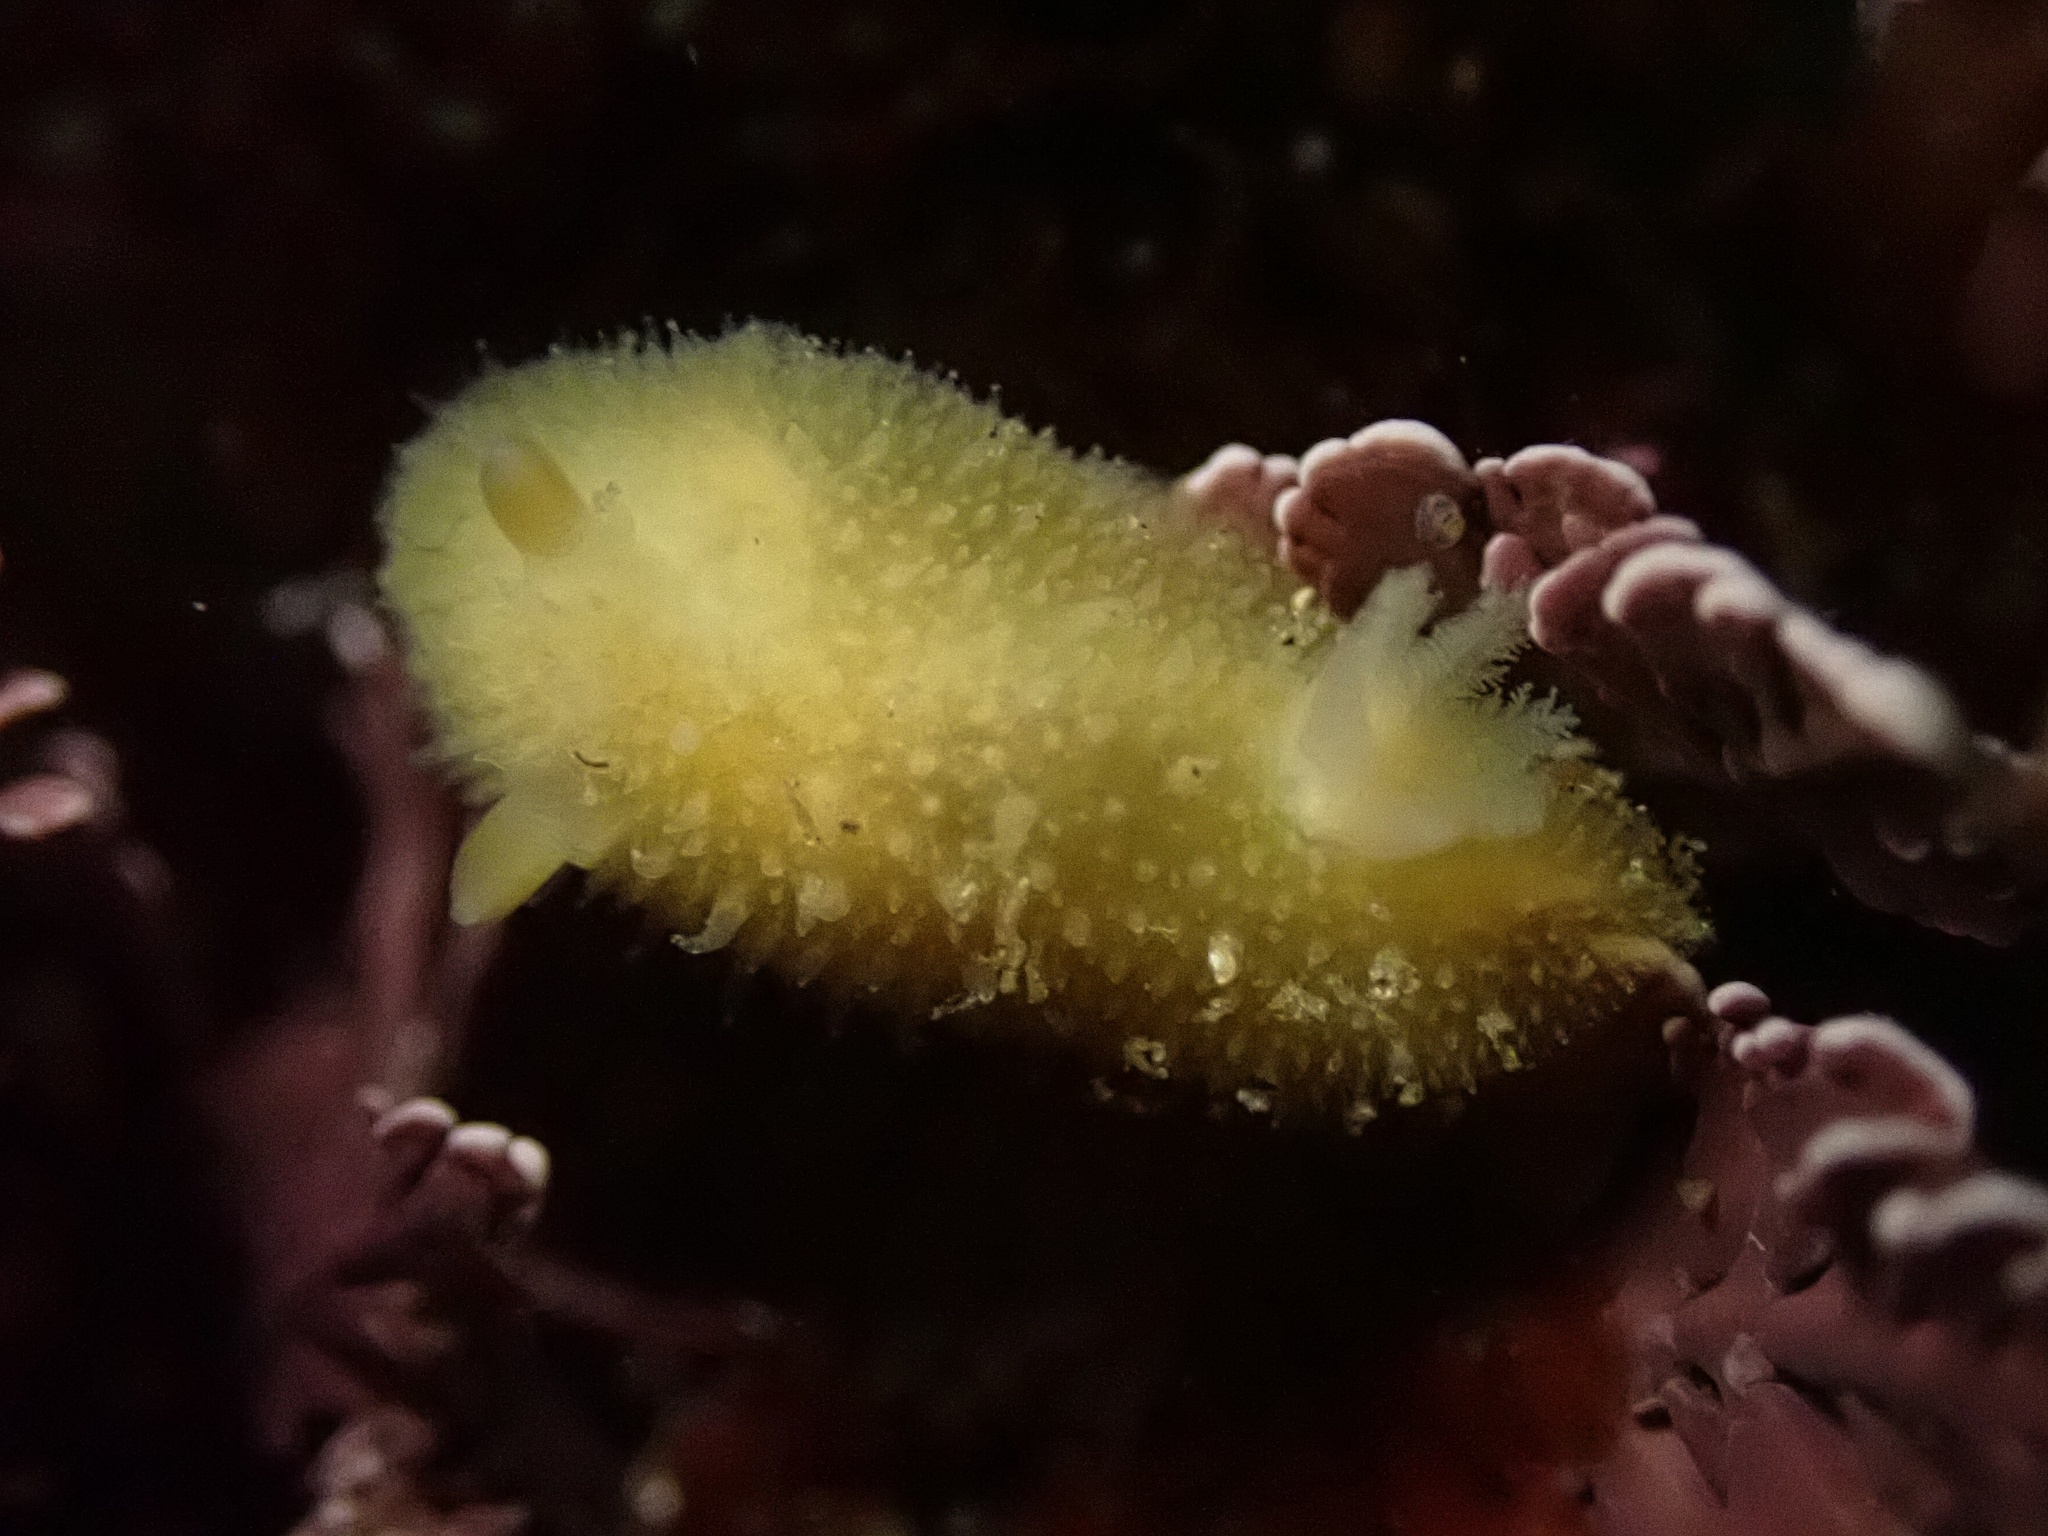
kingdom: Animalia
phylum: Mollusca
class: Gastropoda
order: Nudibranchia
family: Discodorididae
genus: Thordisa
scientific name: Thordisa bimaculata
